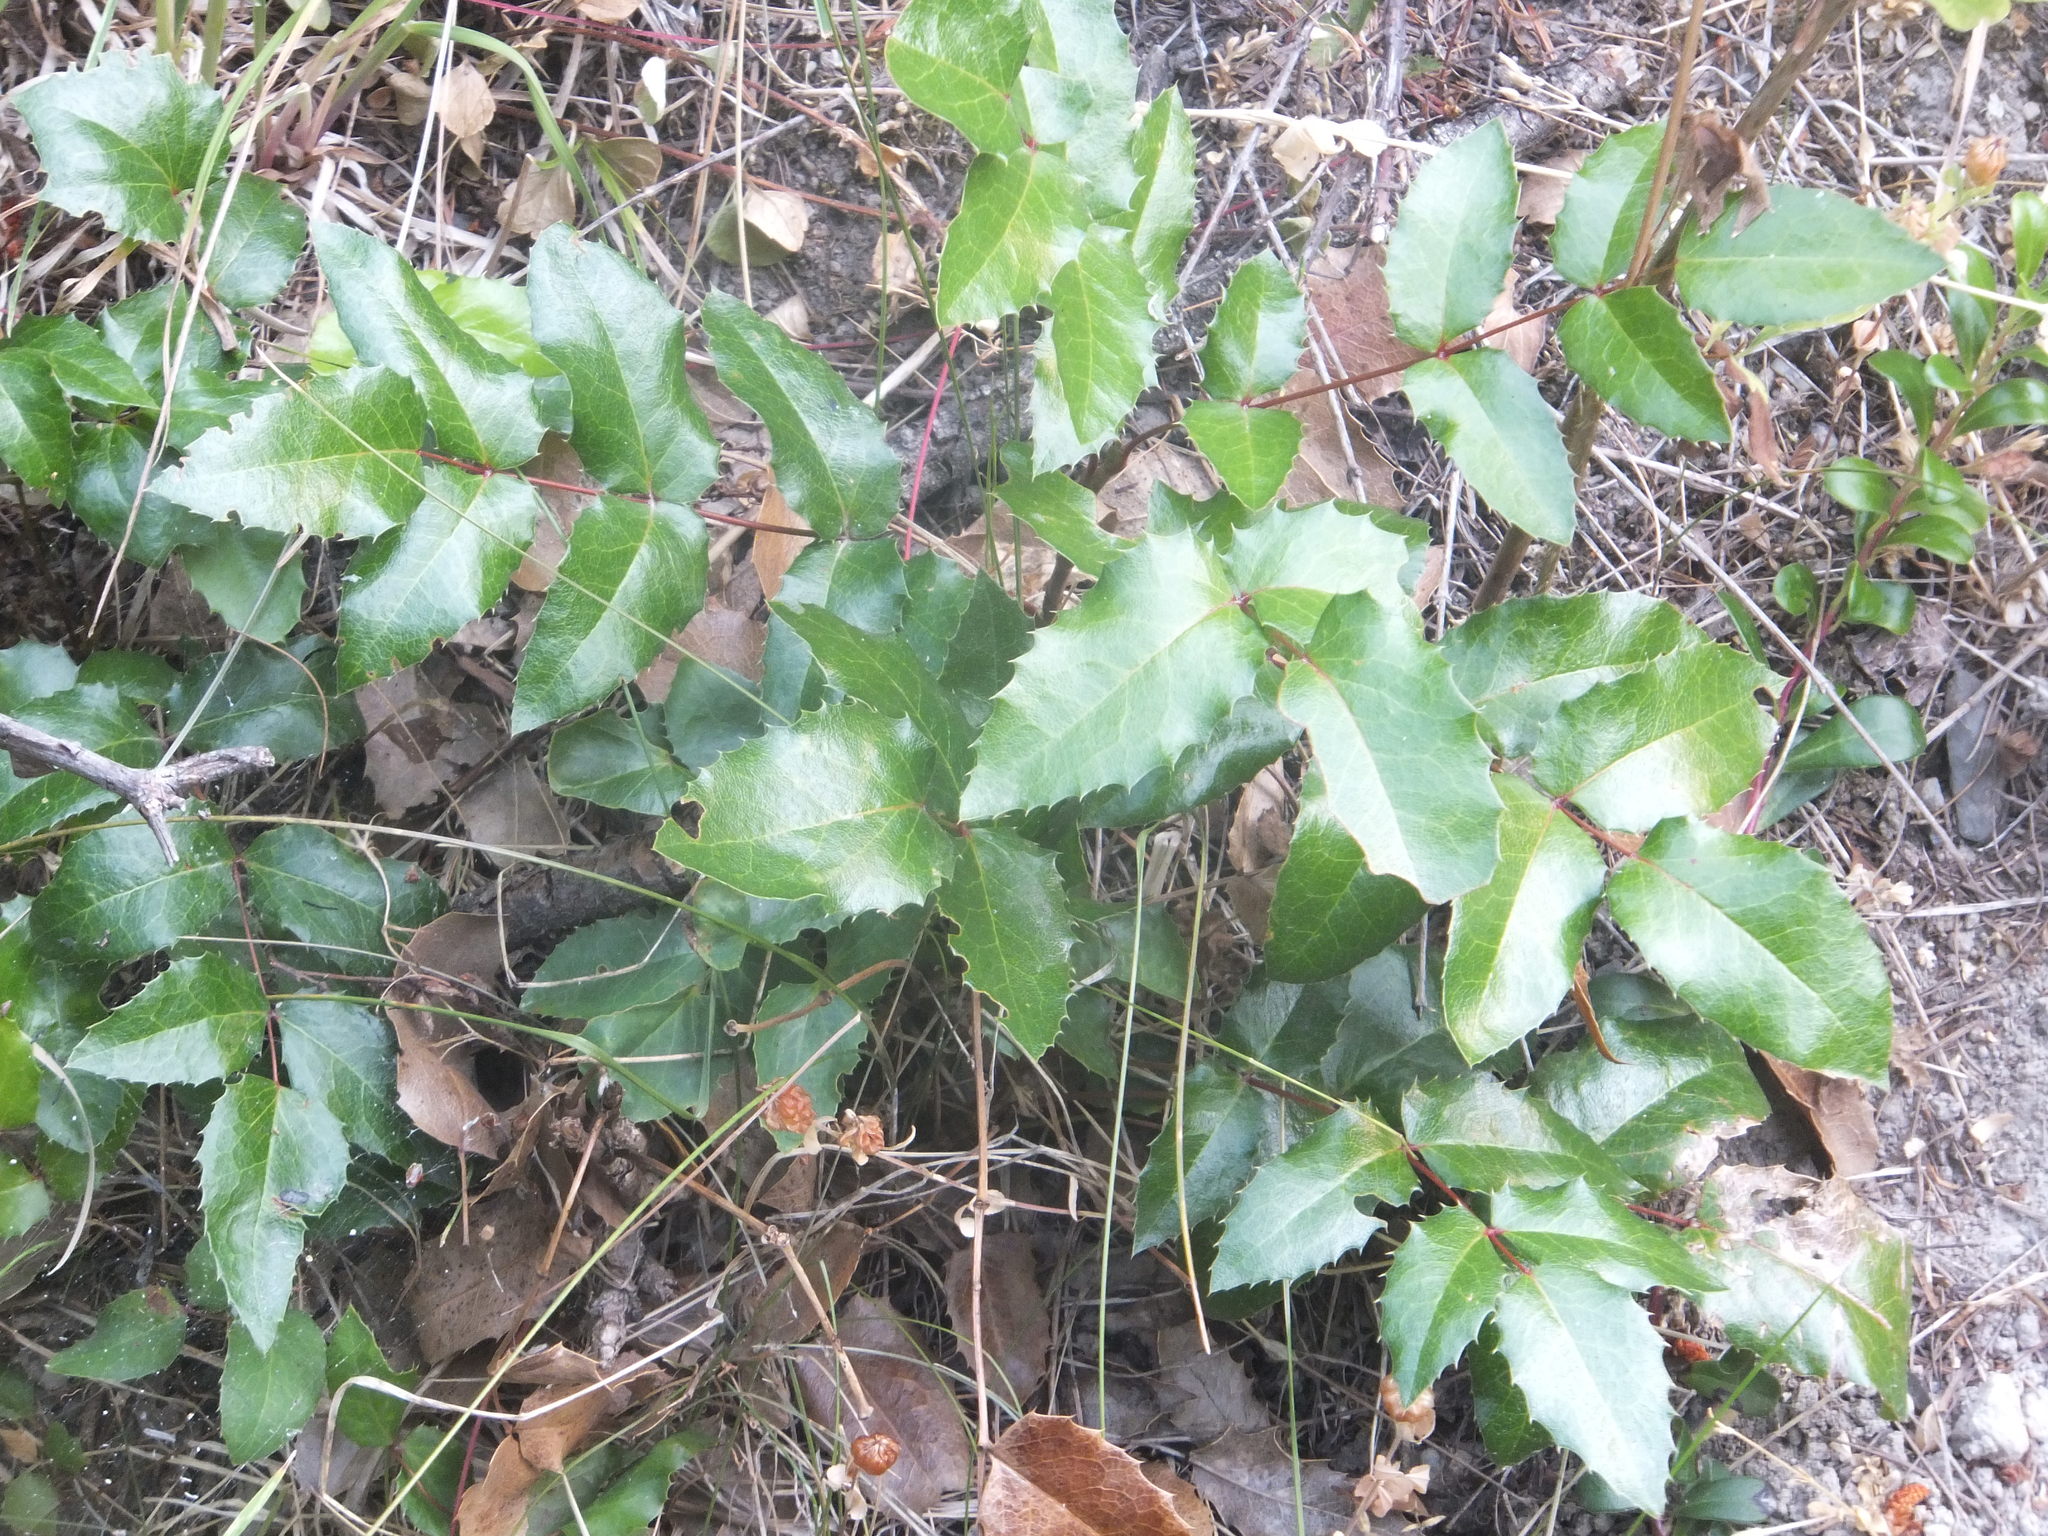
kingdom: Plantae
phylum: Tracheophyta
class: Magnoliopsida
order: Ranunculales
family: Berberidaceae
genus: Mahonia
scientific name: Mahonia aquifolium
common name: Oregon-grape
